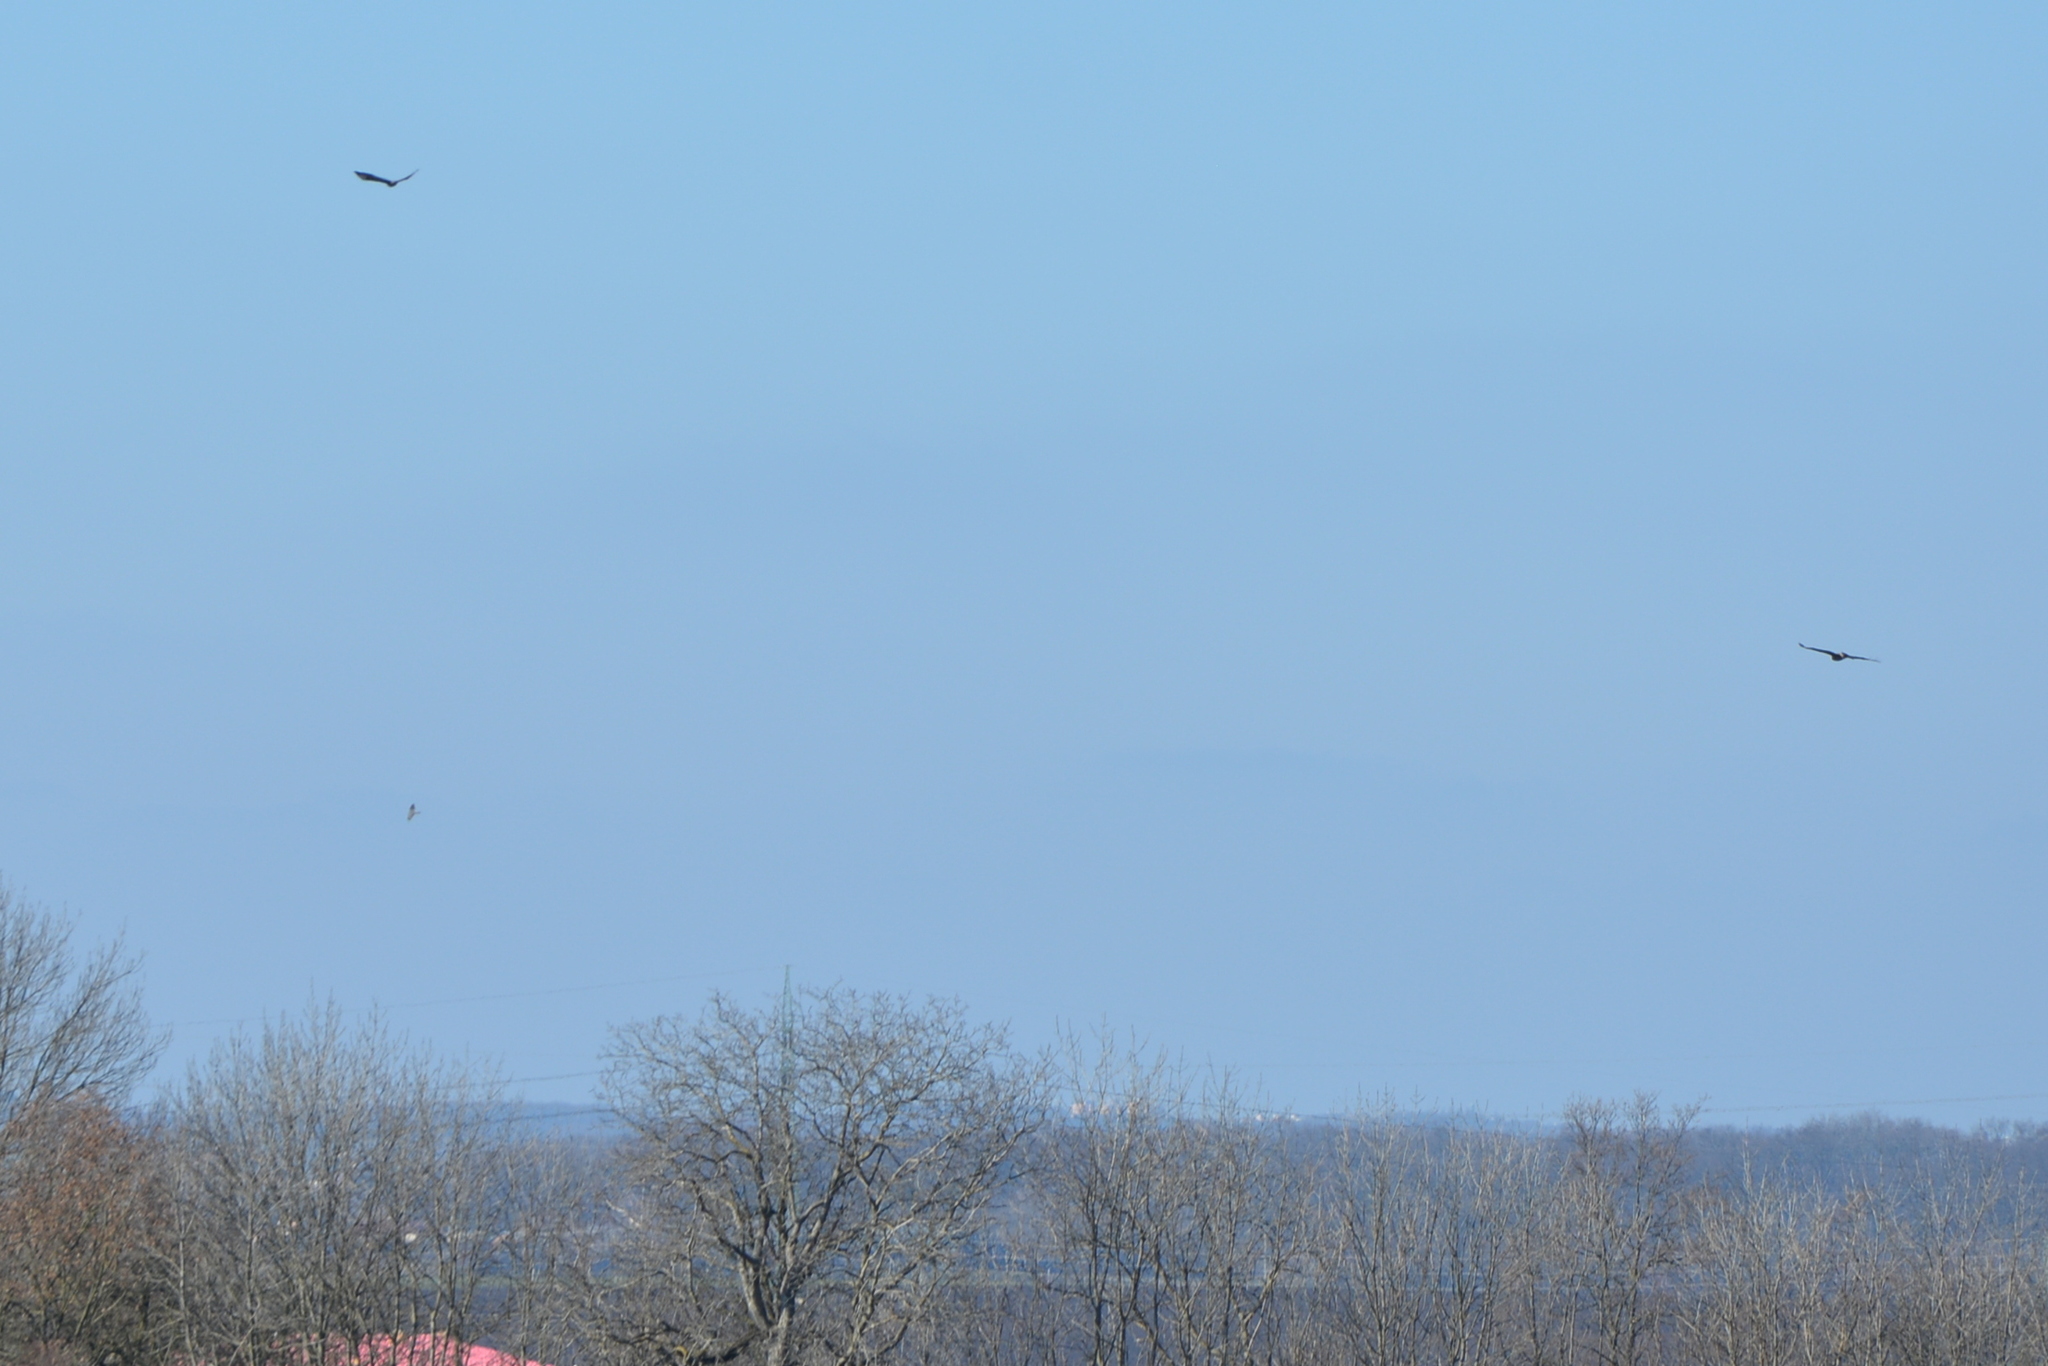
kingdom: Animalia
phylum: Chordata
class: Aves
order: Accipitriformes
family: Accipitridae
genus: Buteo
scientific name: Buteo buteo
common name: Common buzzard
